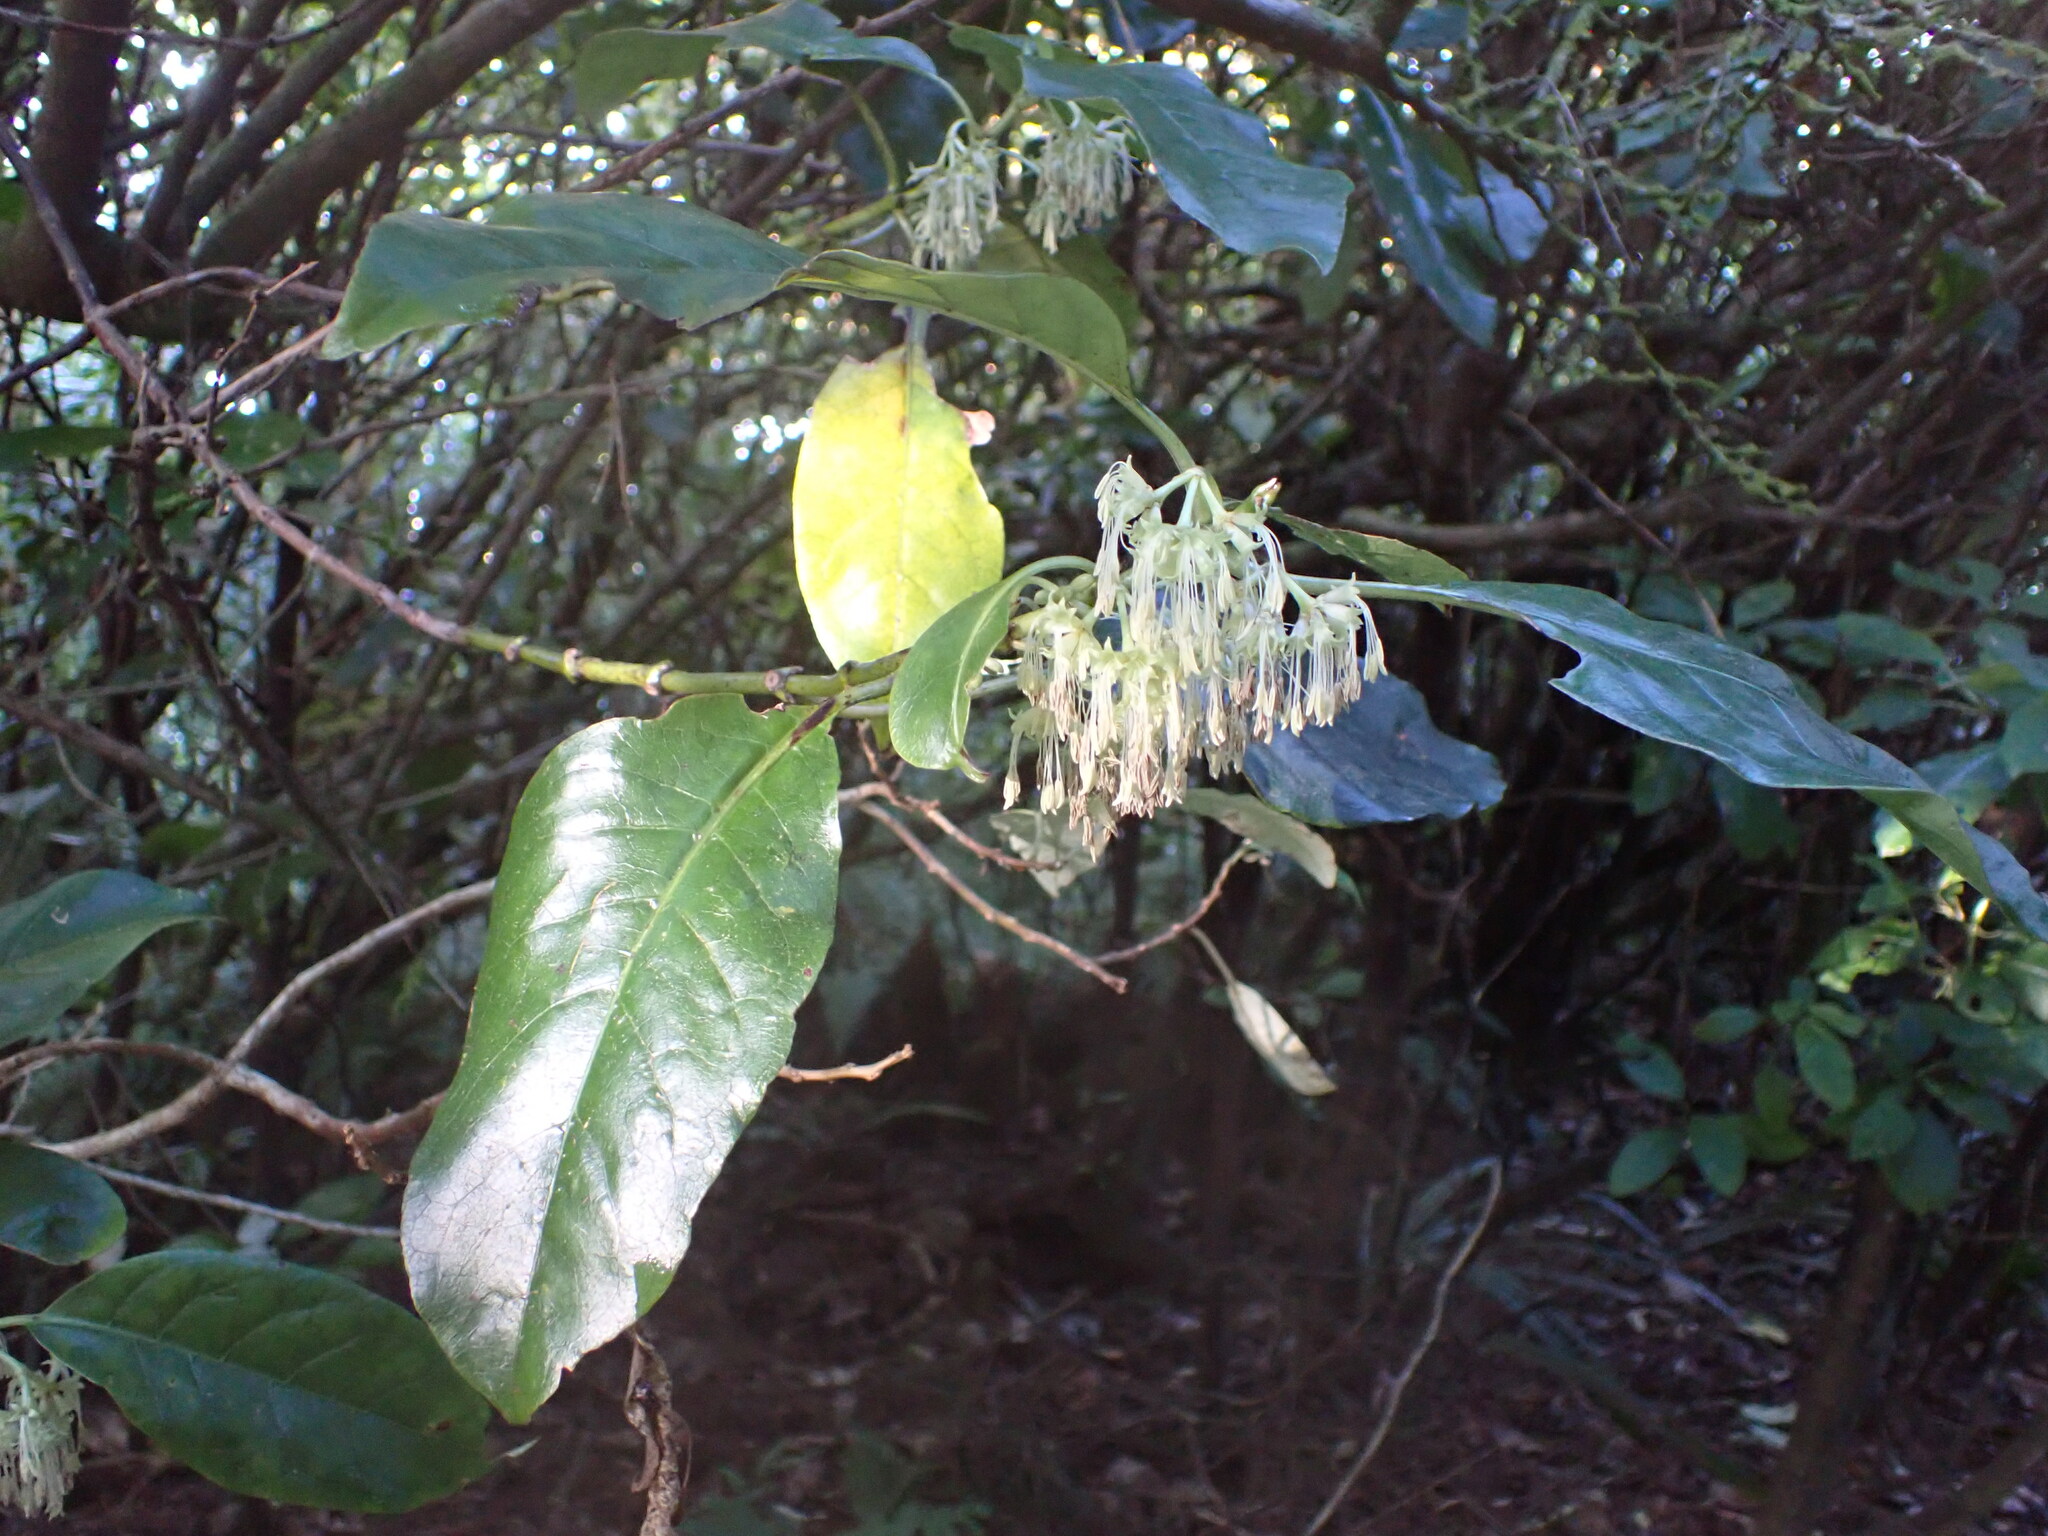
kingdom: Plantae
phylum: Tracheophyta
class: Magnoliopsida
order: Gentianales
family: Rubiaceae
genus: Coprosma
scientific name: Coprosma autumnalis
